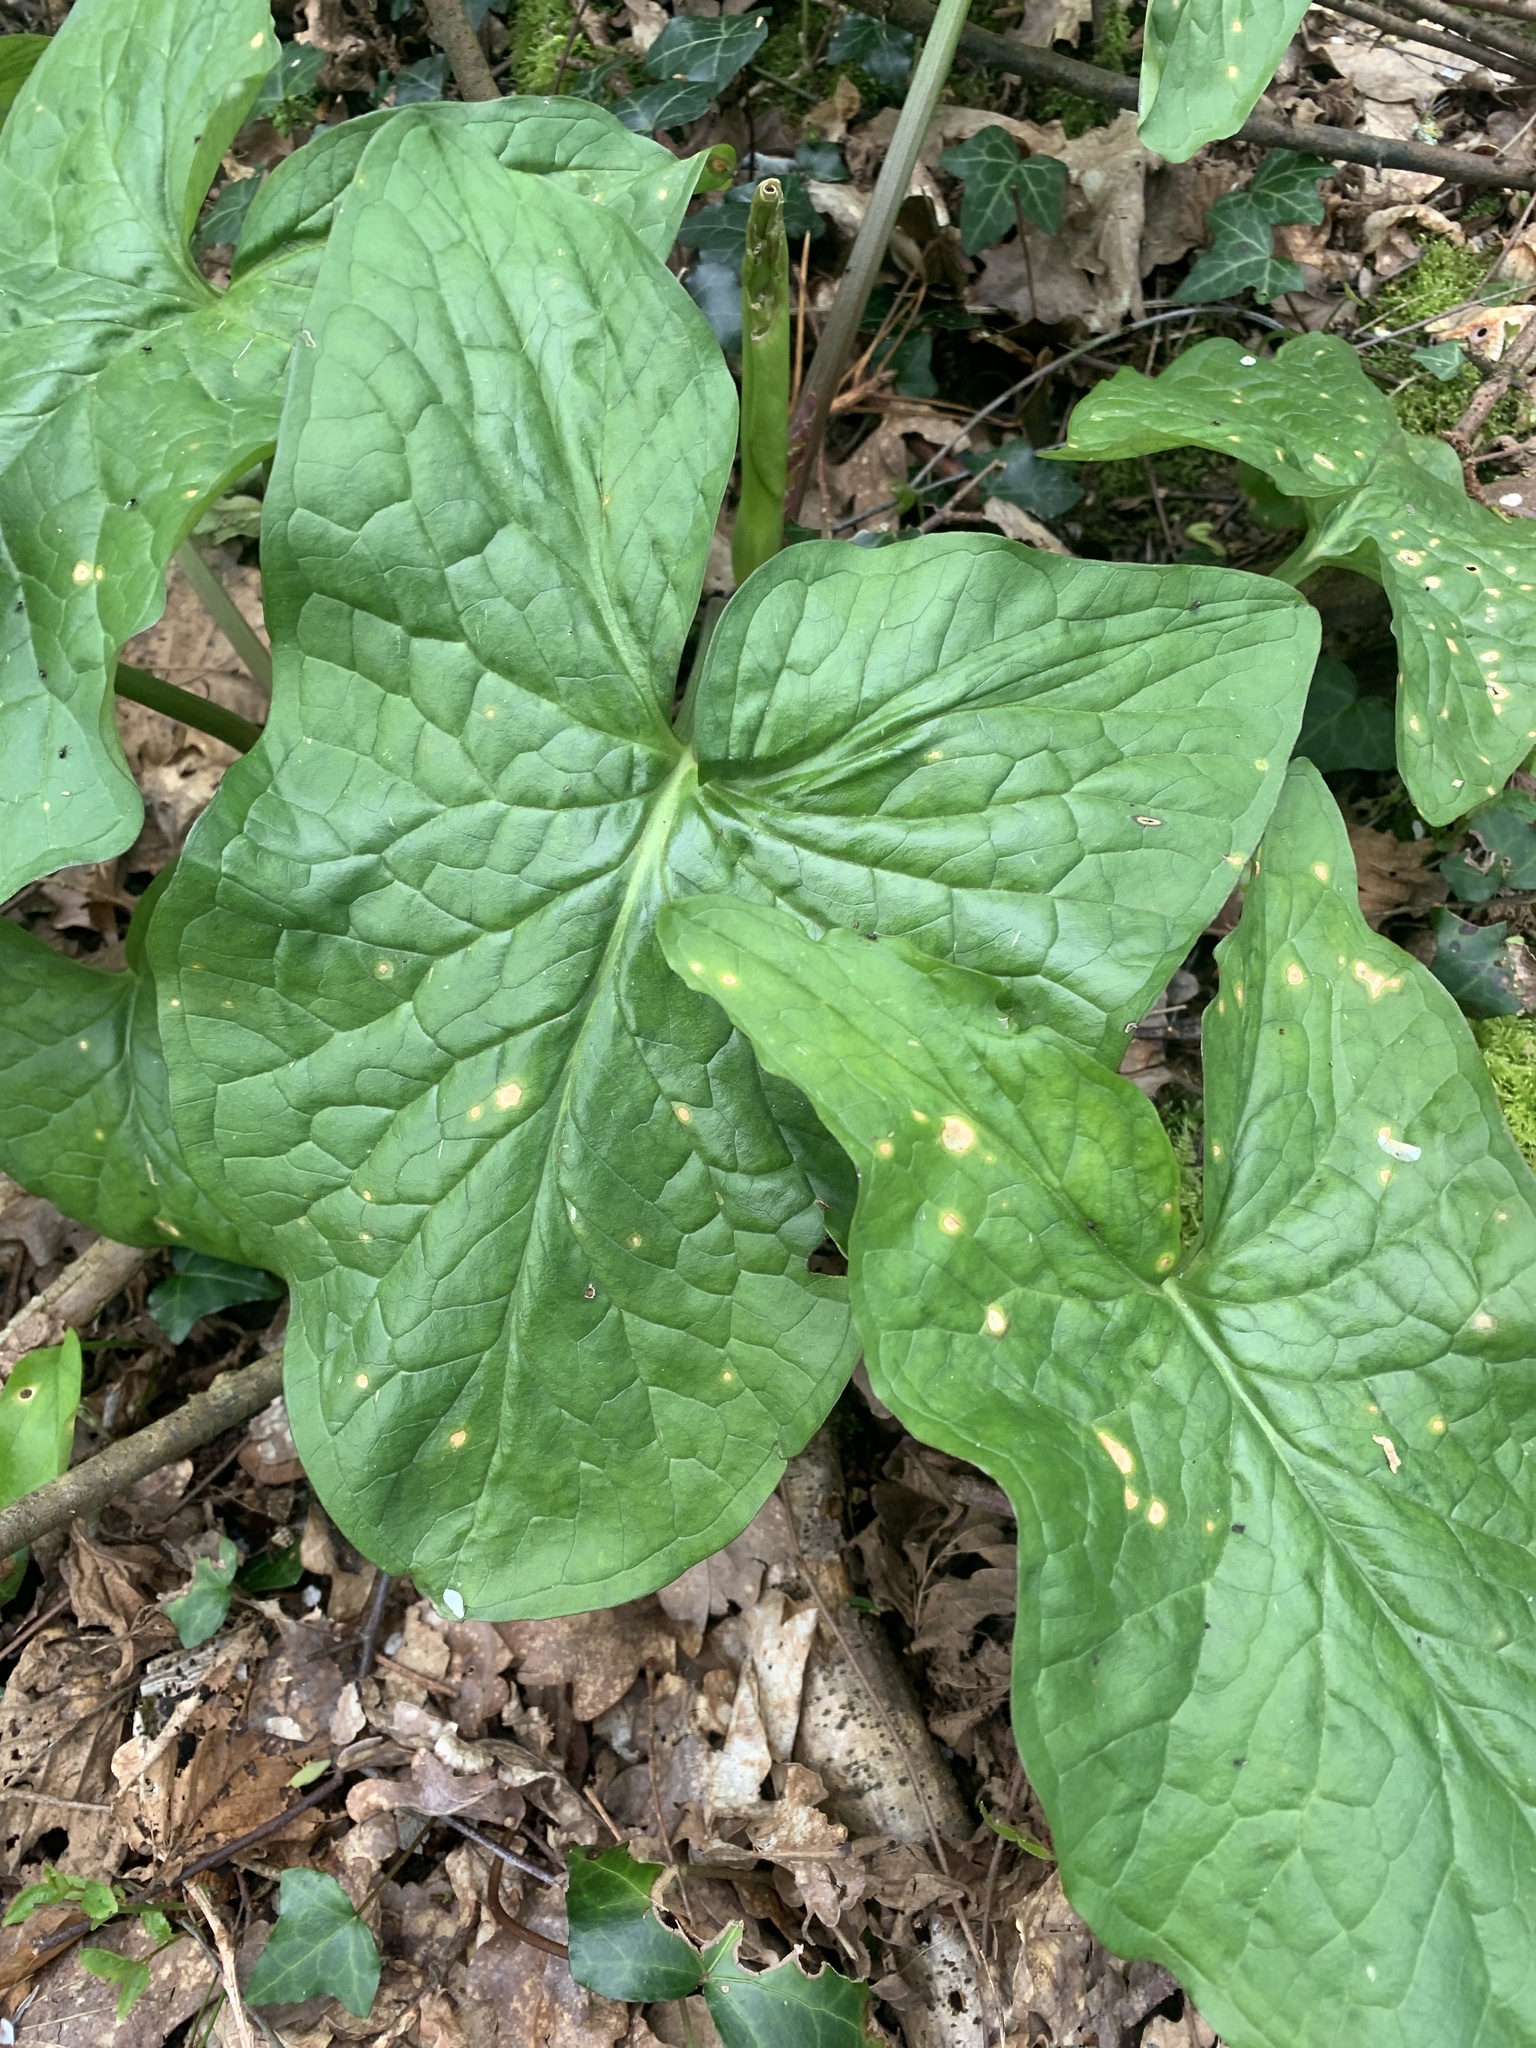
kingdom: Plantae
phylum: Tracheophyta
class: Liliopsida
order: Alismatales
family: Araceae
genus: Arum
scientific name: Arum maculatum
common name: Lords-and-ladies
